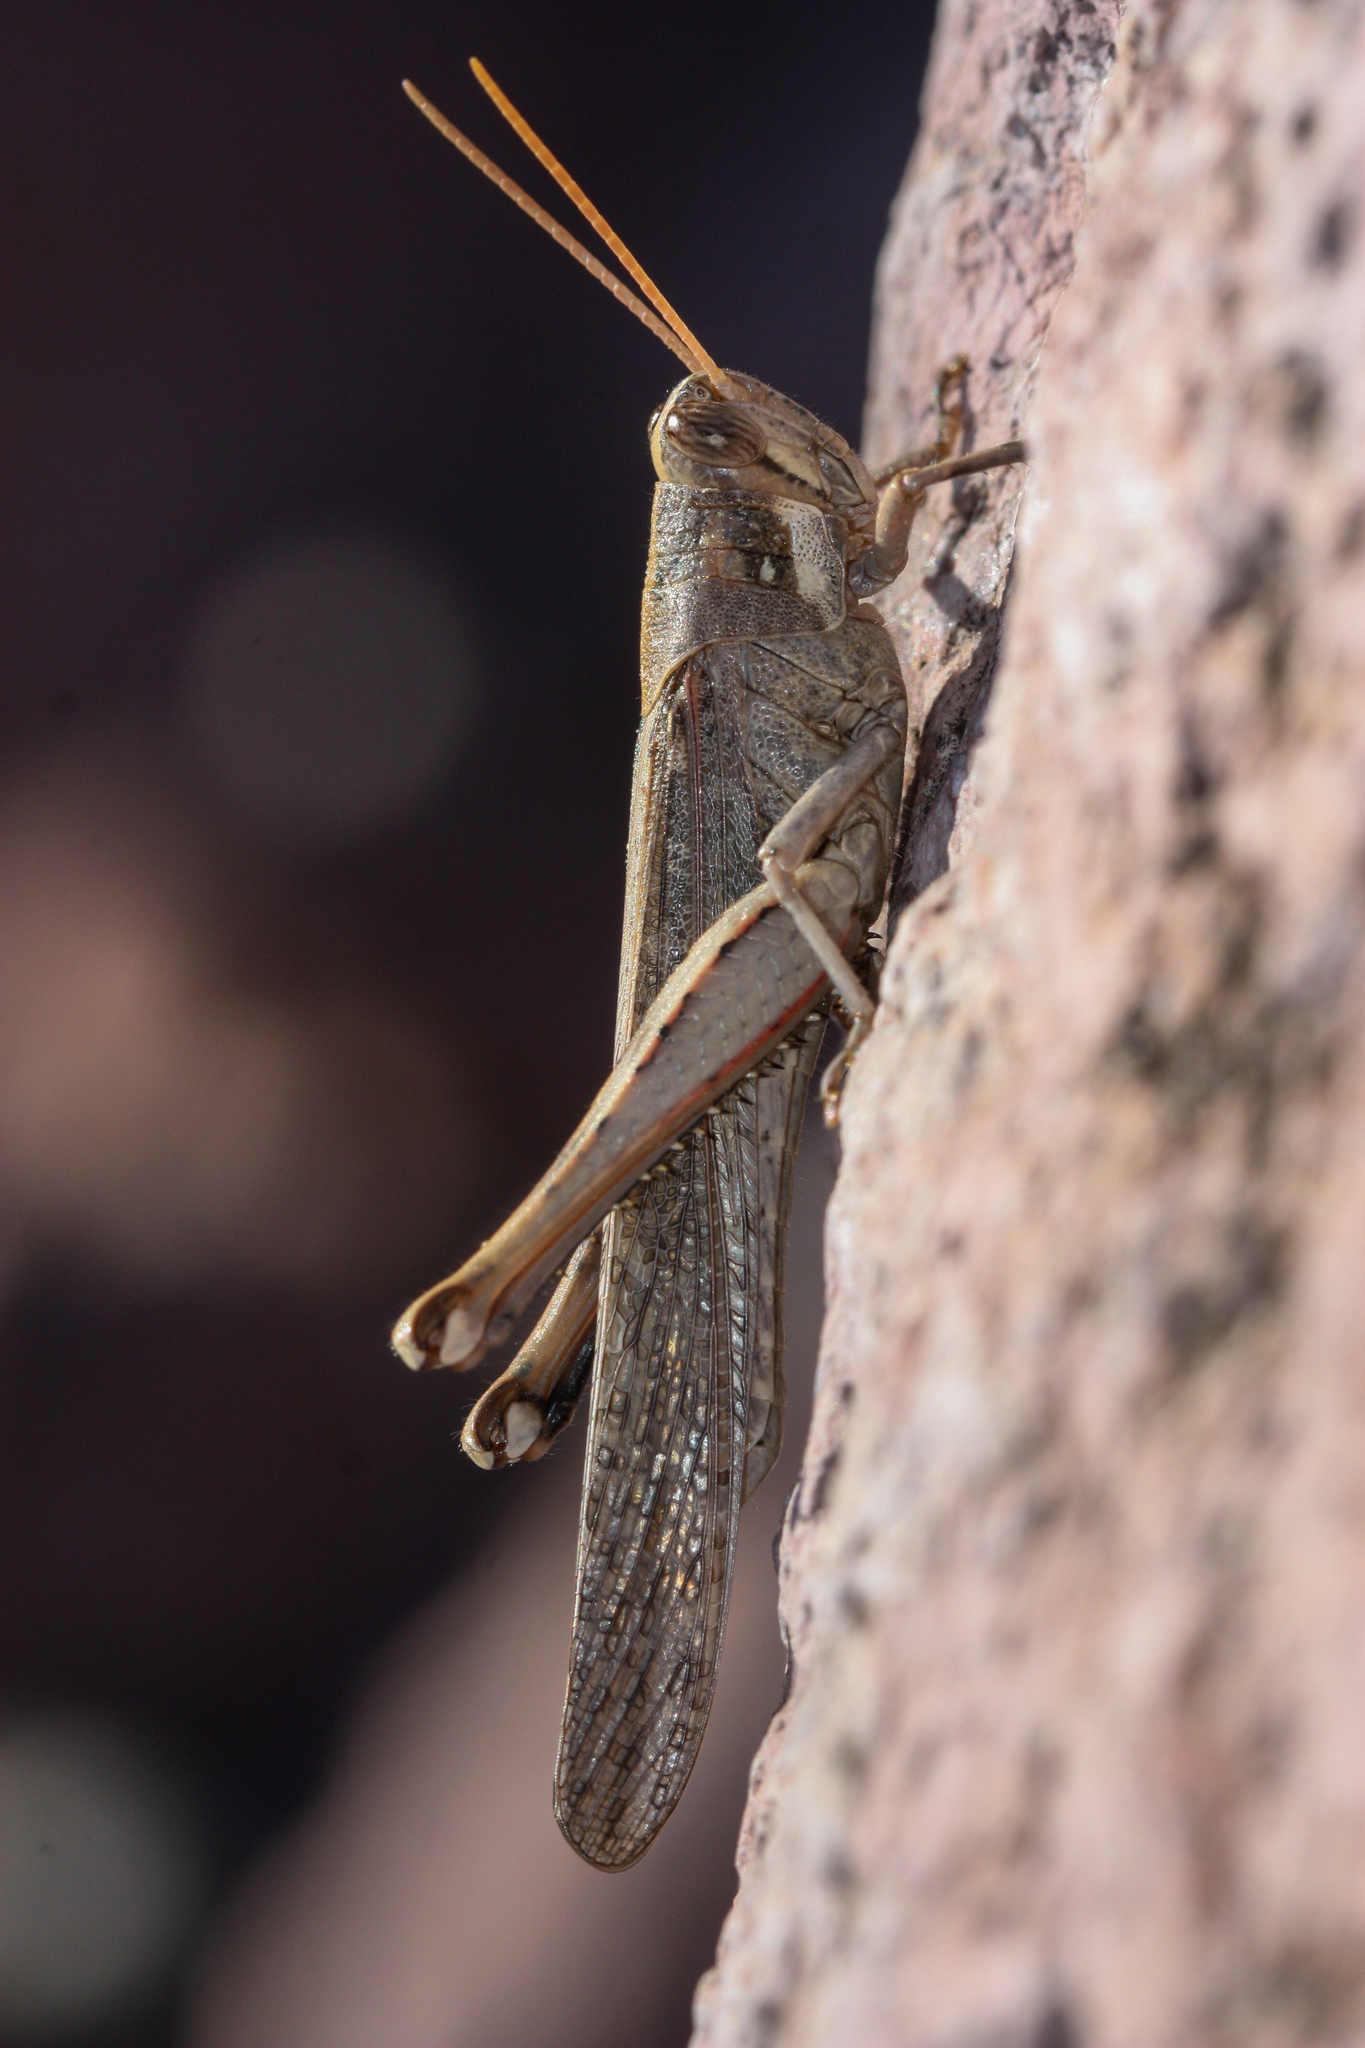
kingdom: Animalia
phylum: Arthropoda
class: Insecta
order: Orthoptera
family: Acrididae
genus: Schistocerca
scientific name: Schistocerca nitens
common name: Vagrant grasshopper
